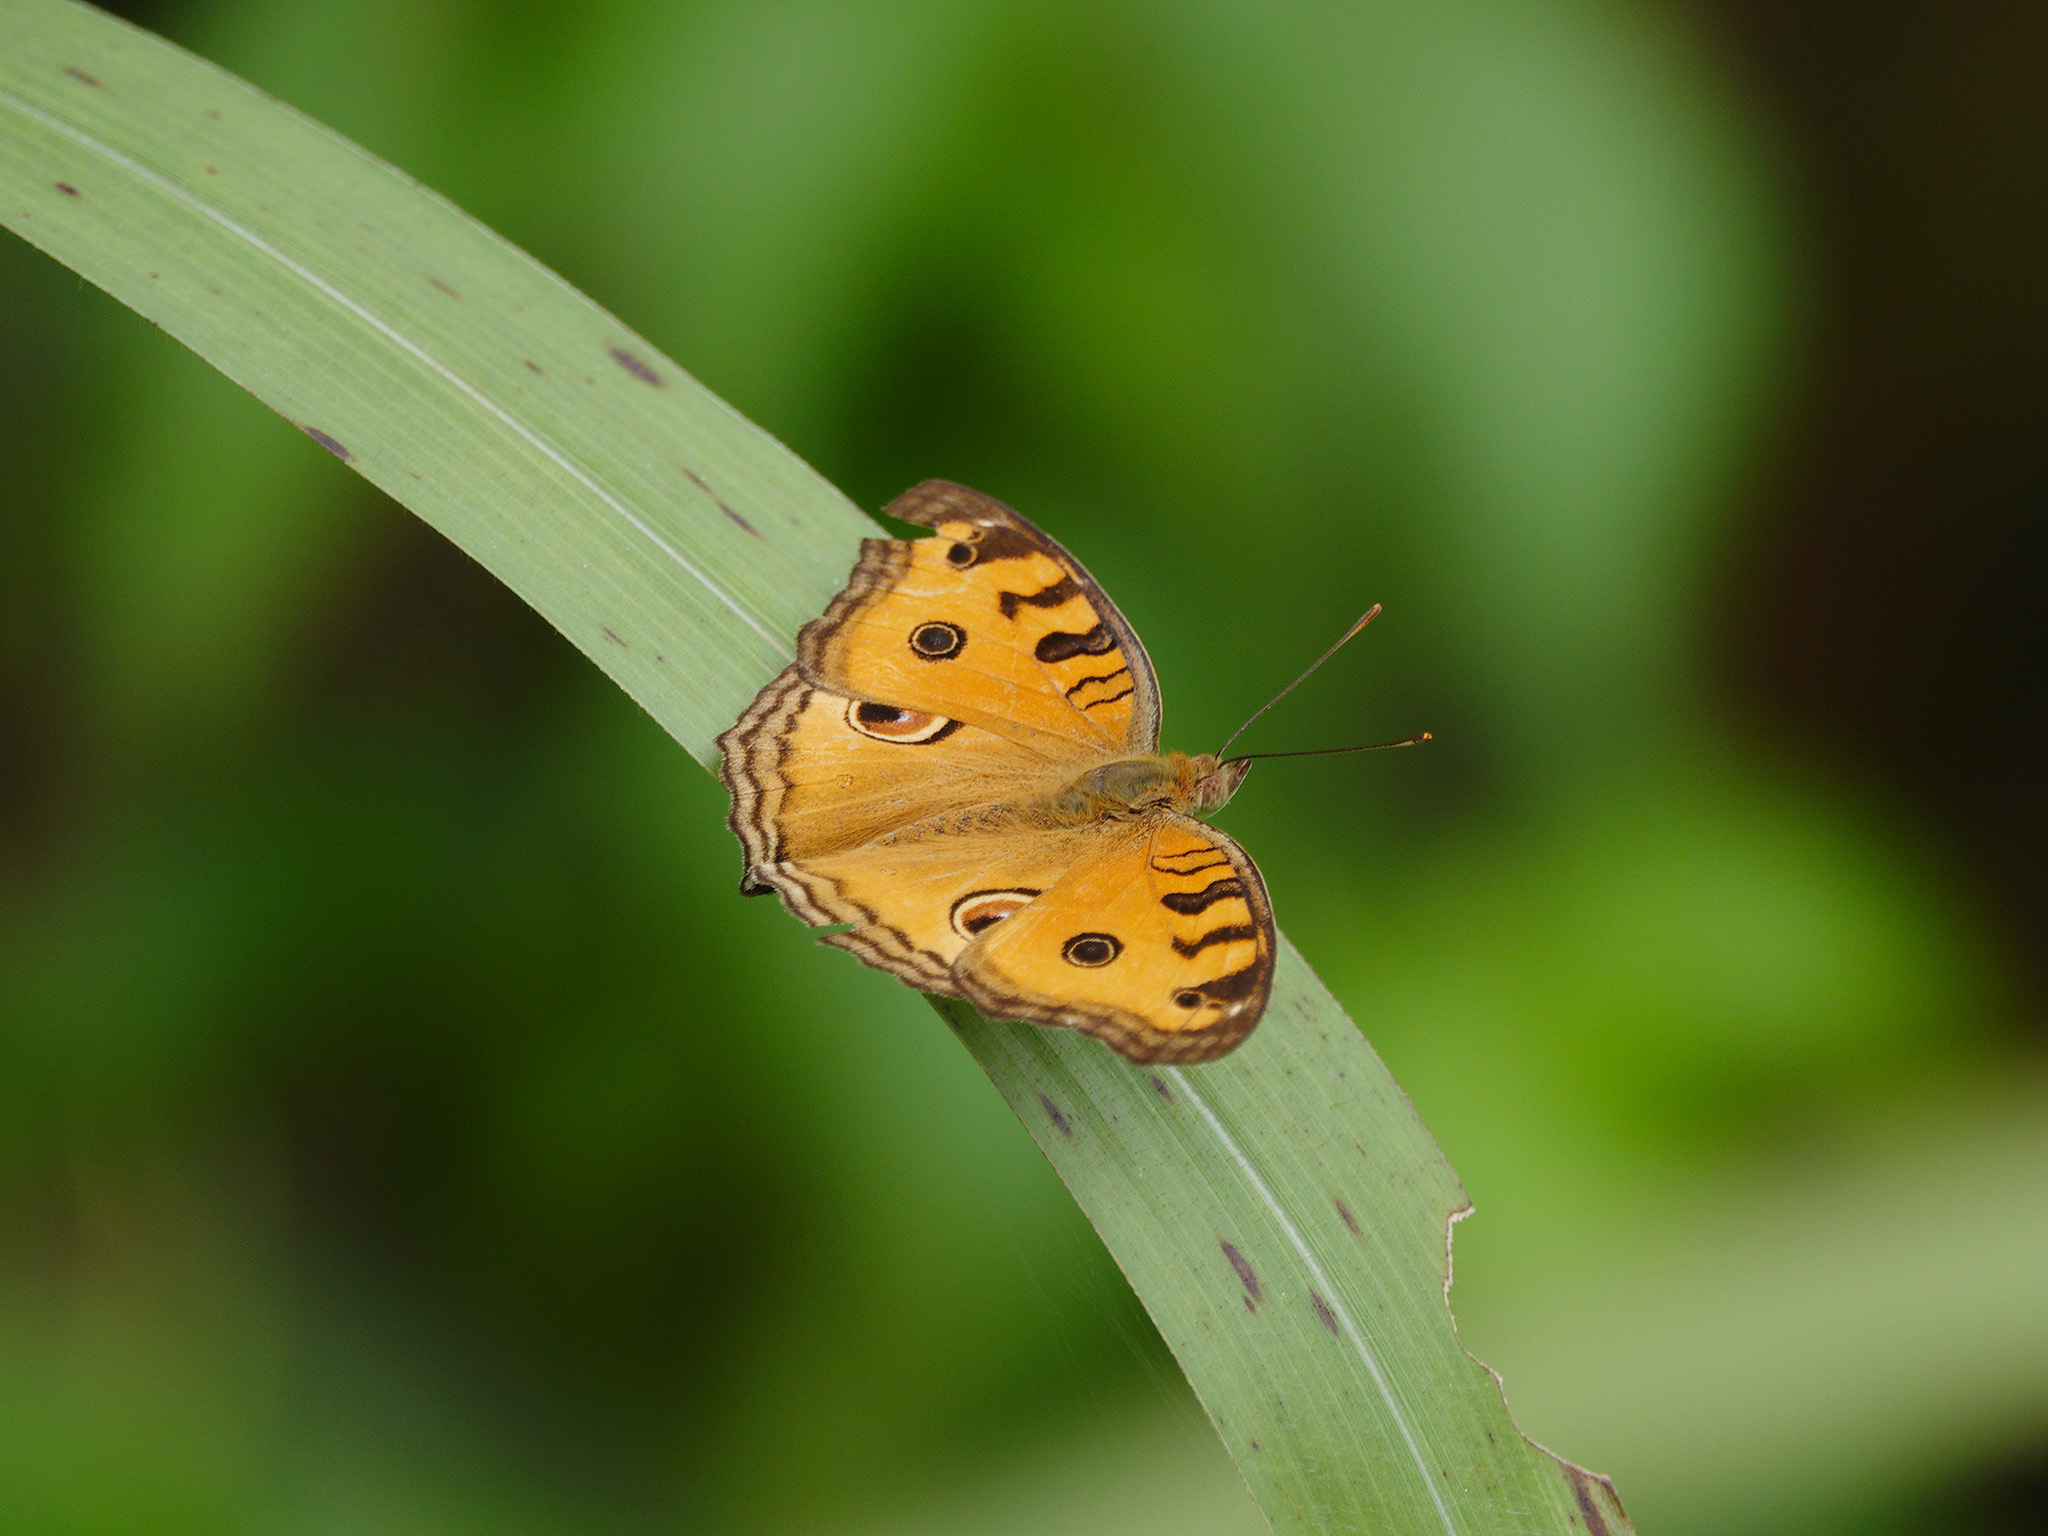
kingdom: Animalia
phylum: Arthropoda
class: Insecta
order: Lepidoptera
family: Nymphalidae
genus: Junonia
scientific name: Junonia almana
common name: Peacock pansy
